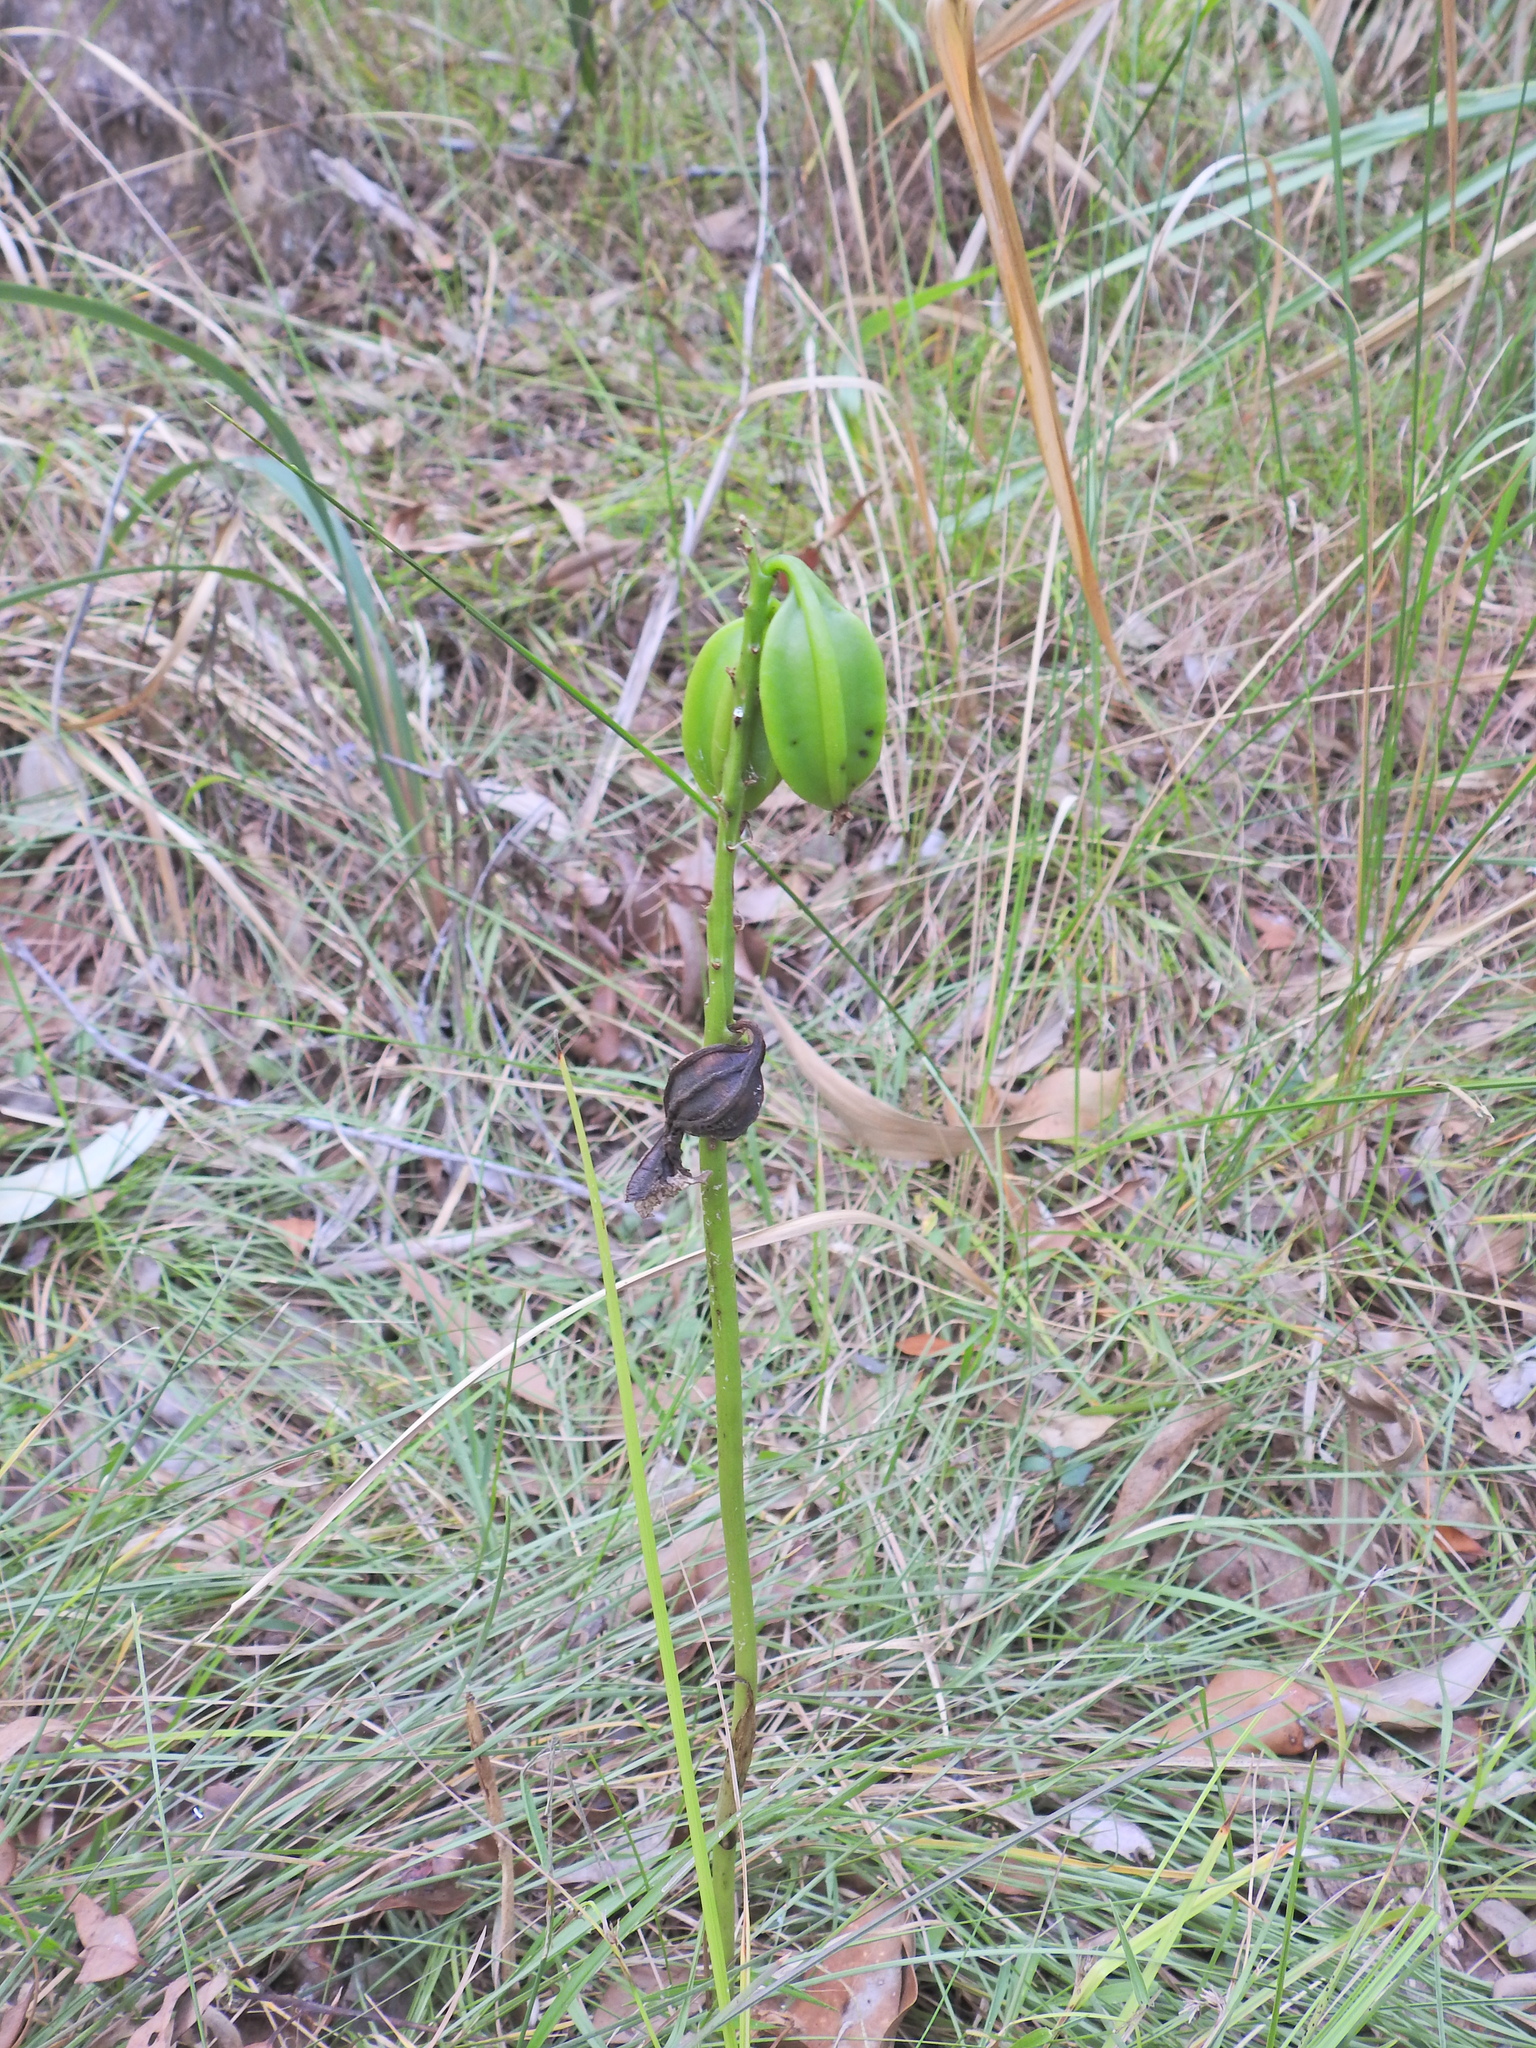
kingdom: Plantae
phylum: Tracheophyta
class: Liliopsida
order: Asparagales
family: Orchidaceae
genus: Eulophia
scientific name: Eulophia cernua
